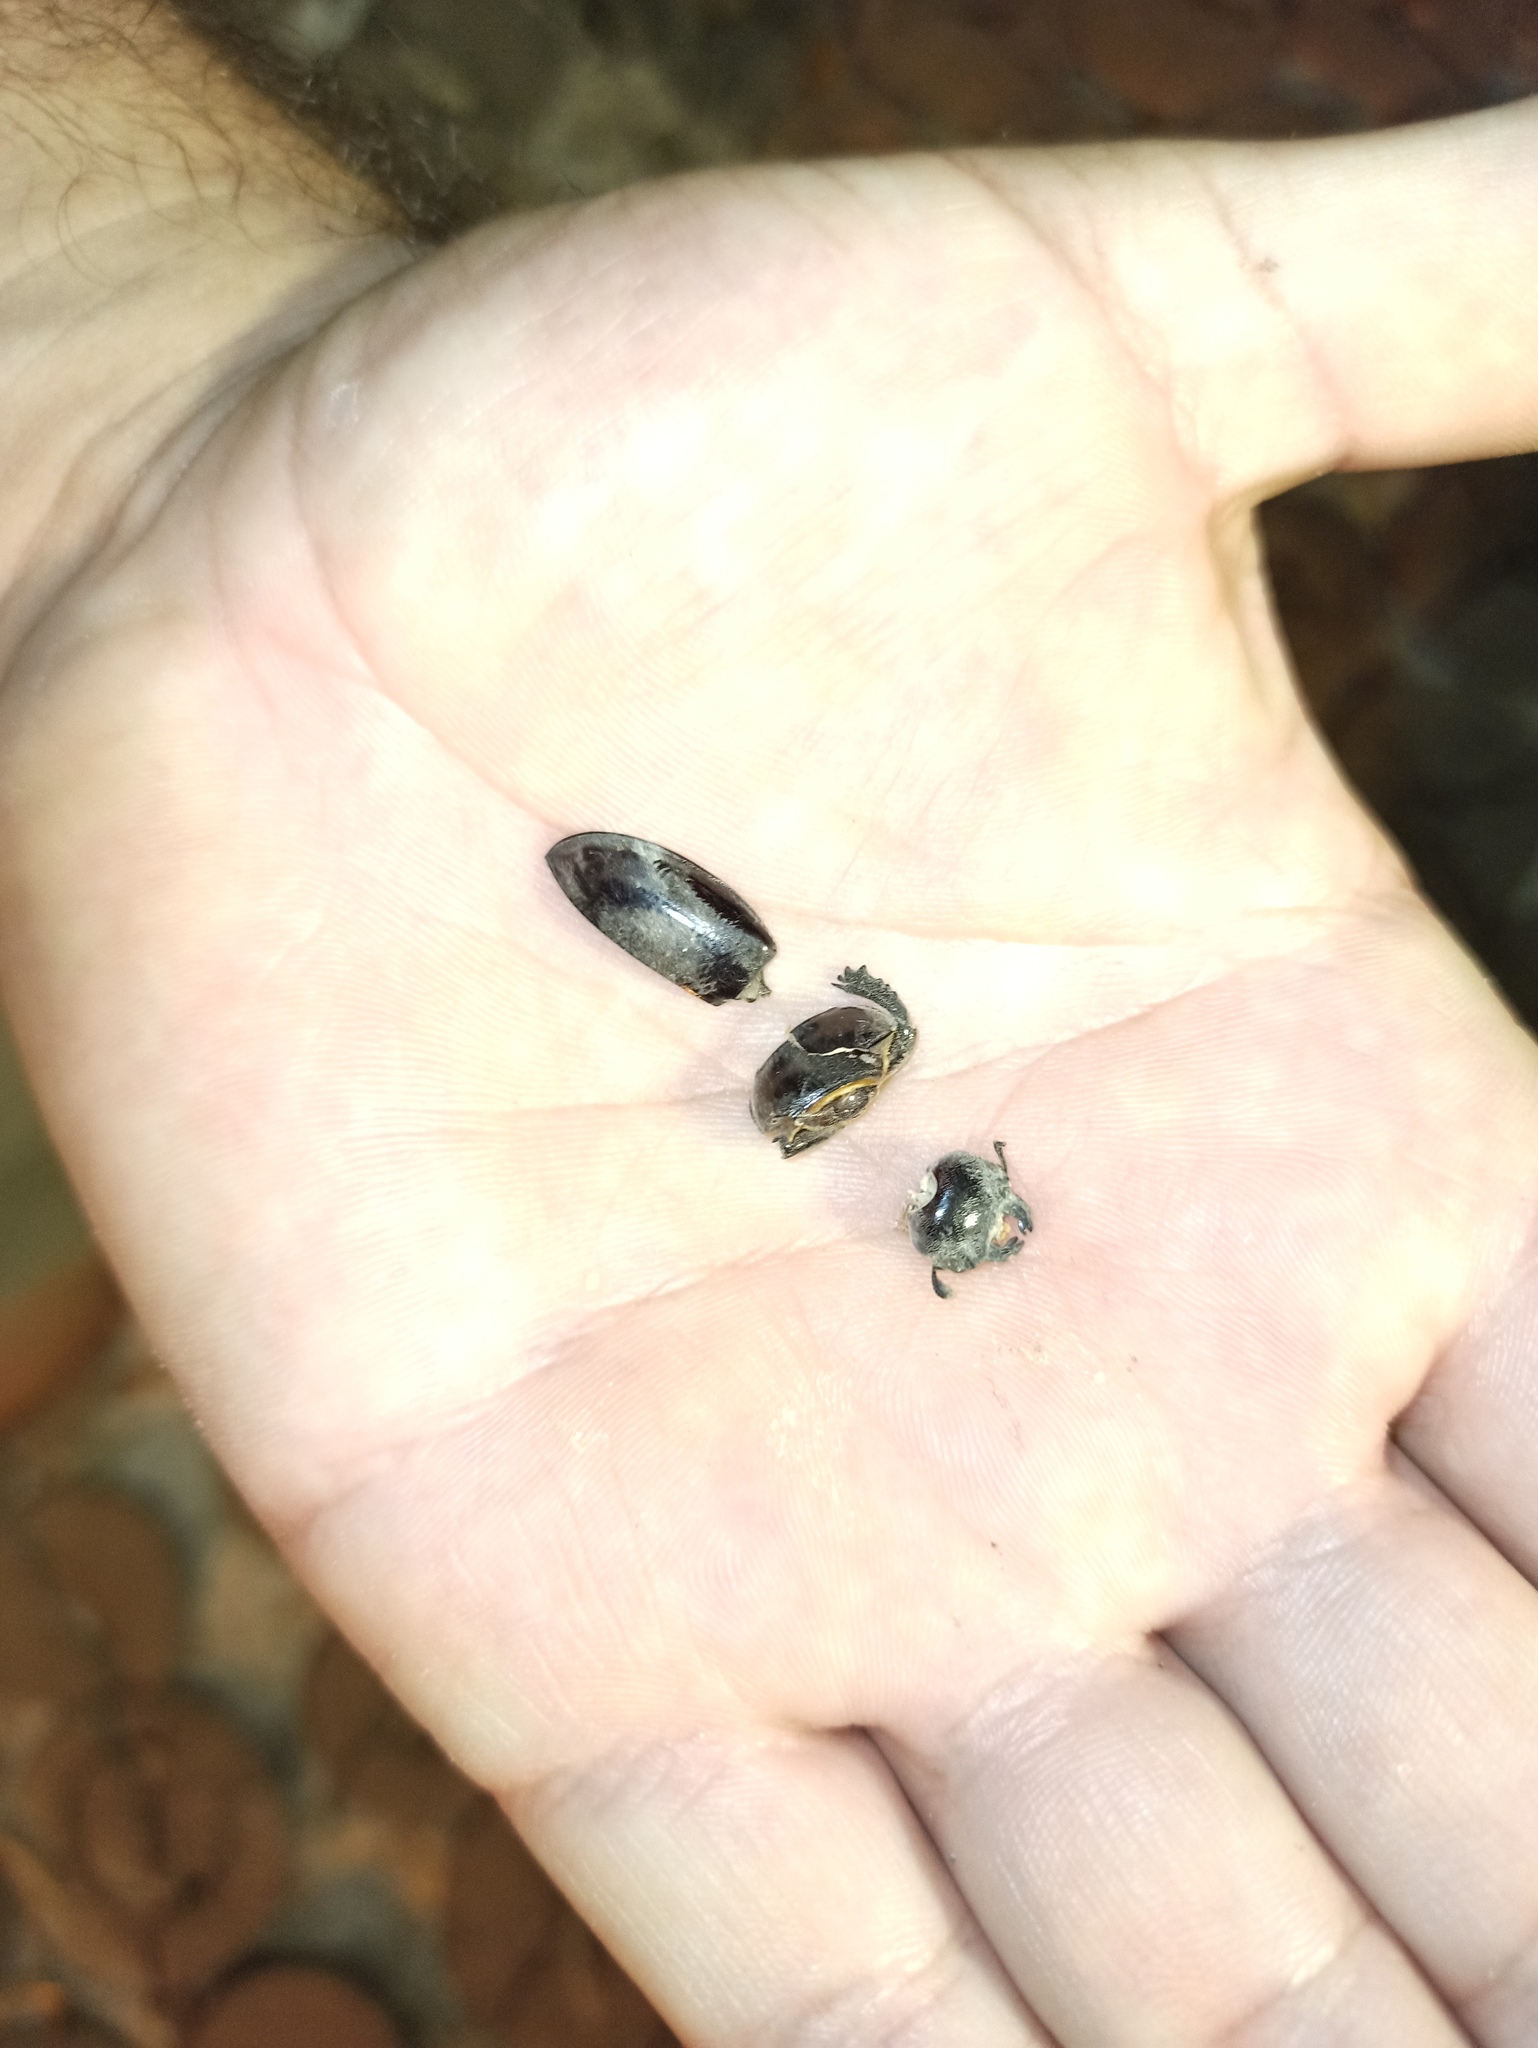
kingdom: Animalia
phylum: Arthropoda
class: Insecta
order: Coleoptera
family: Lucanidae
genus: Lucanus
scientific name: Lucanus barbarossa
